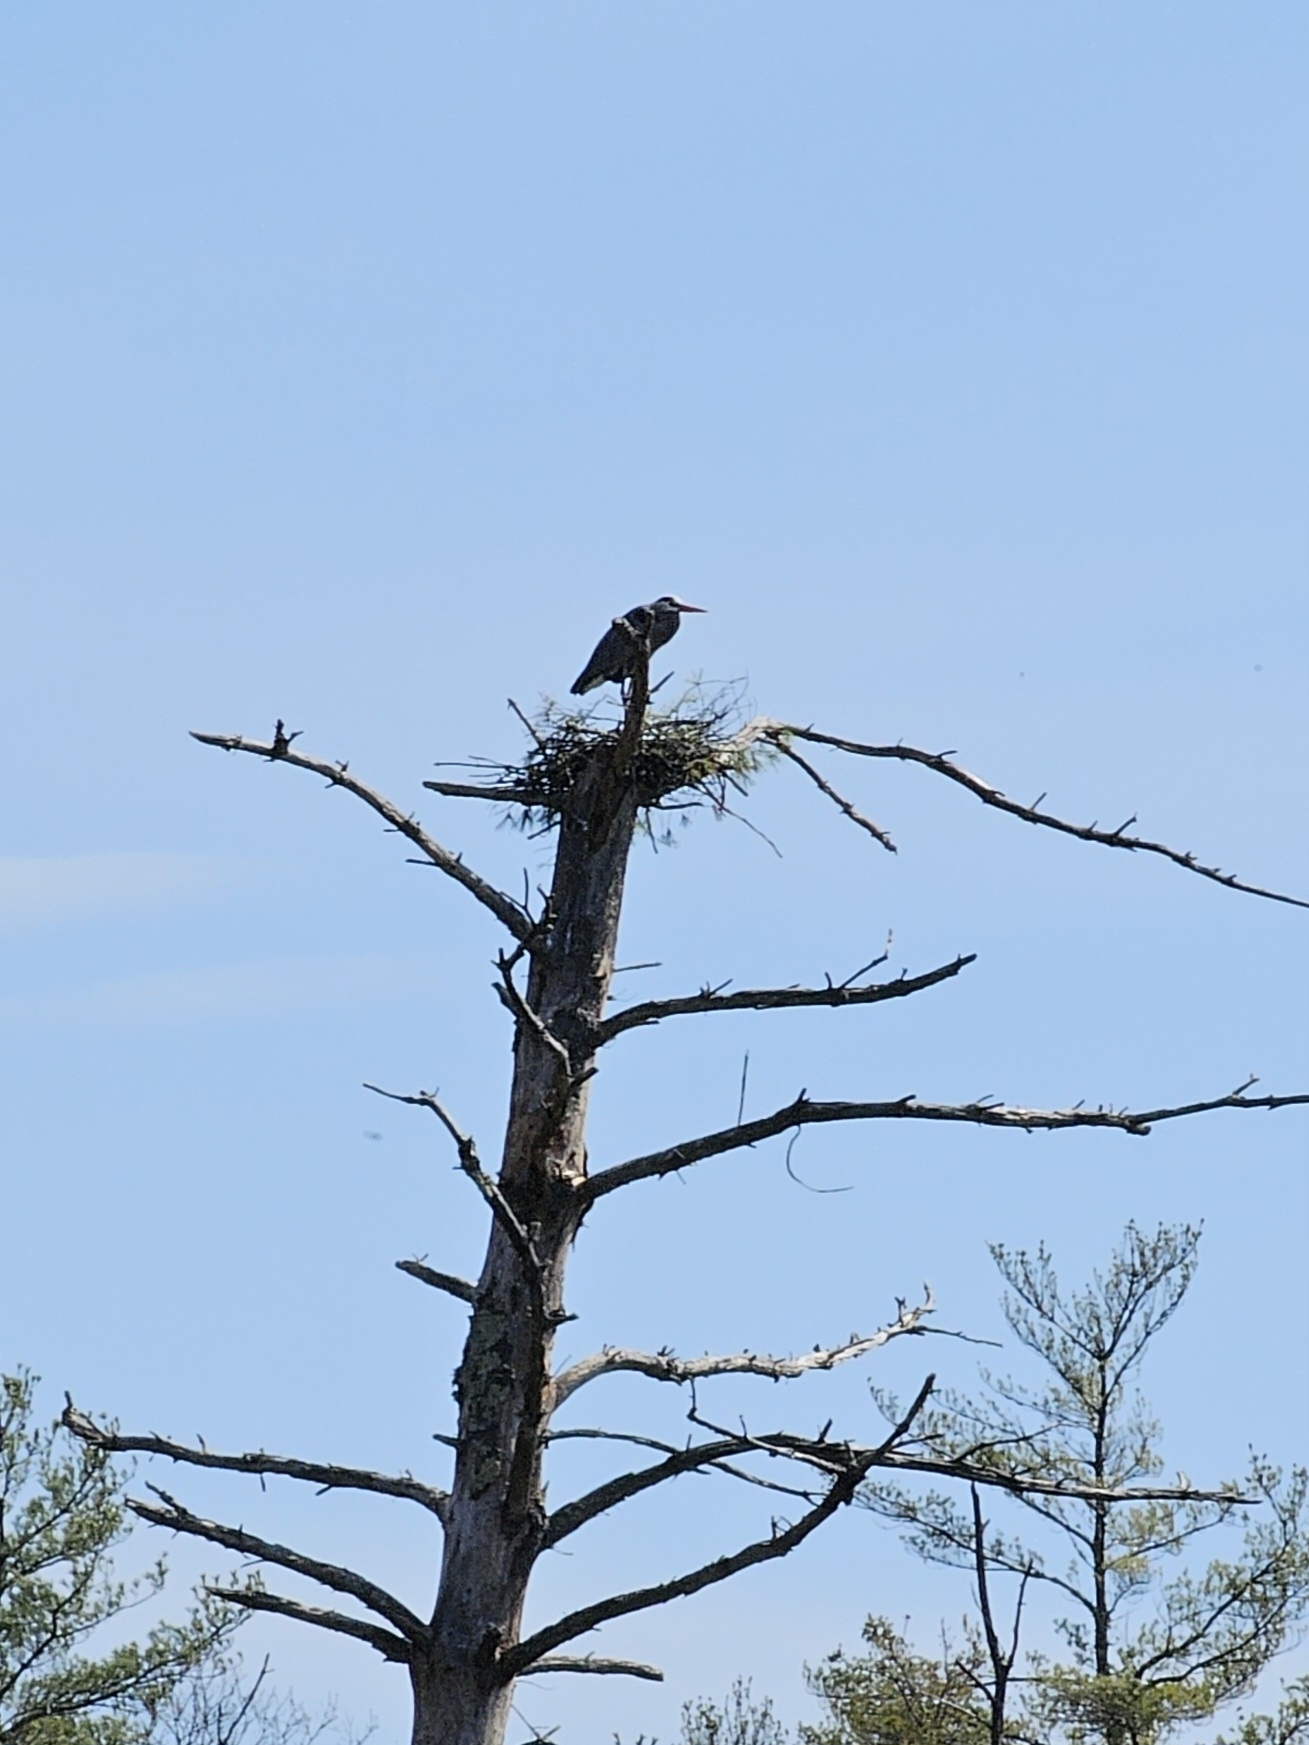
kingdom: Animalia
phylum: Chordata
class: Aves
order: Pelecaniformes
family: Ardeidae
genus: Ardea
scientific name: Ardea herodias
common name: Great blue heron
